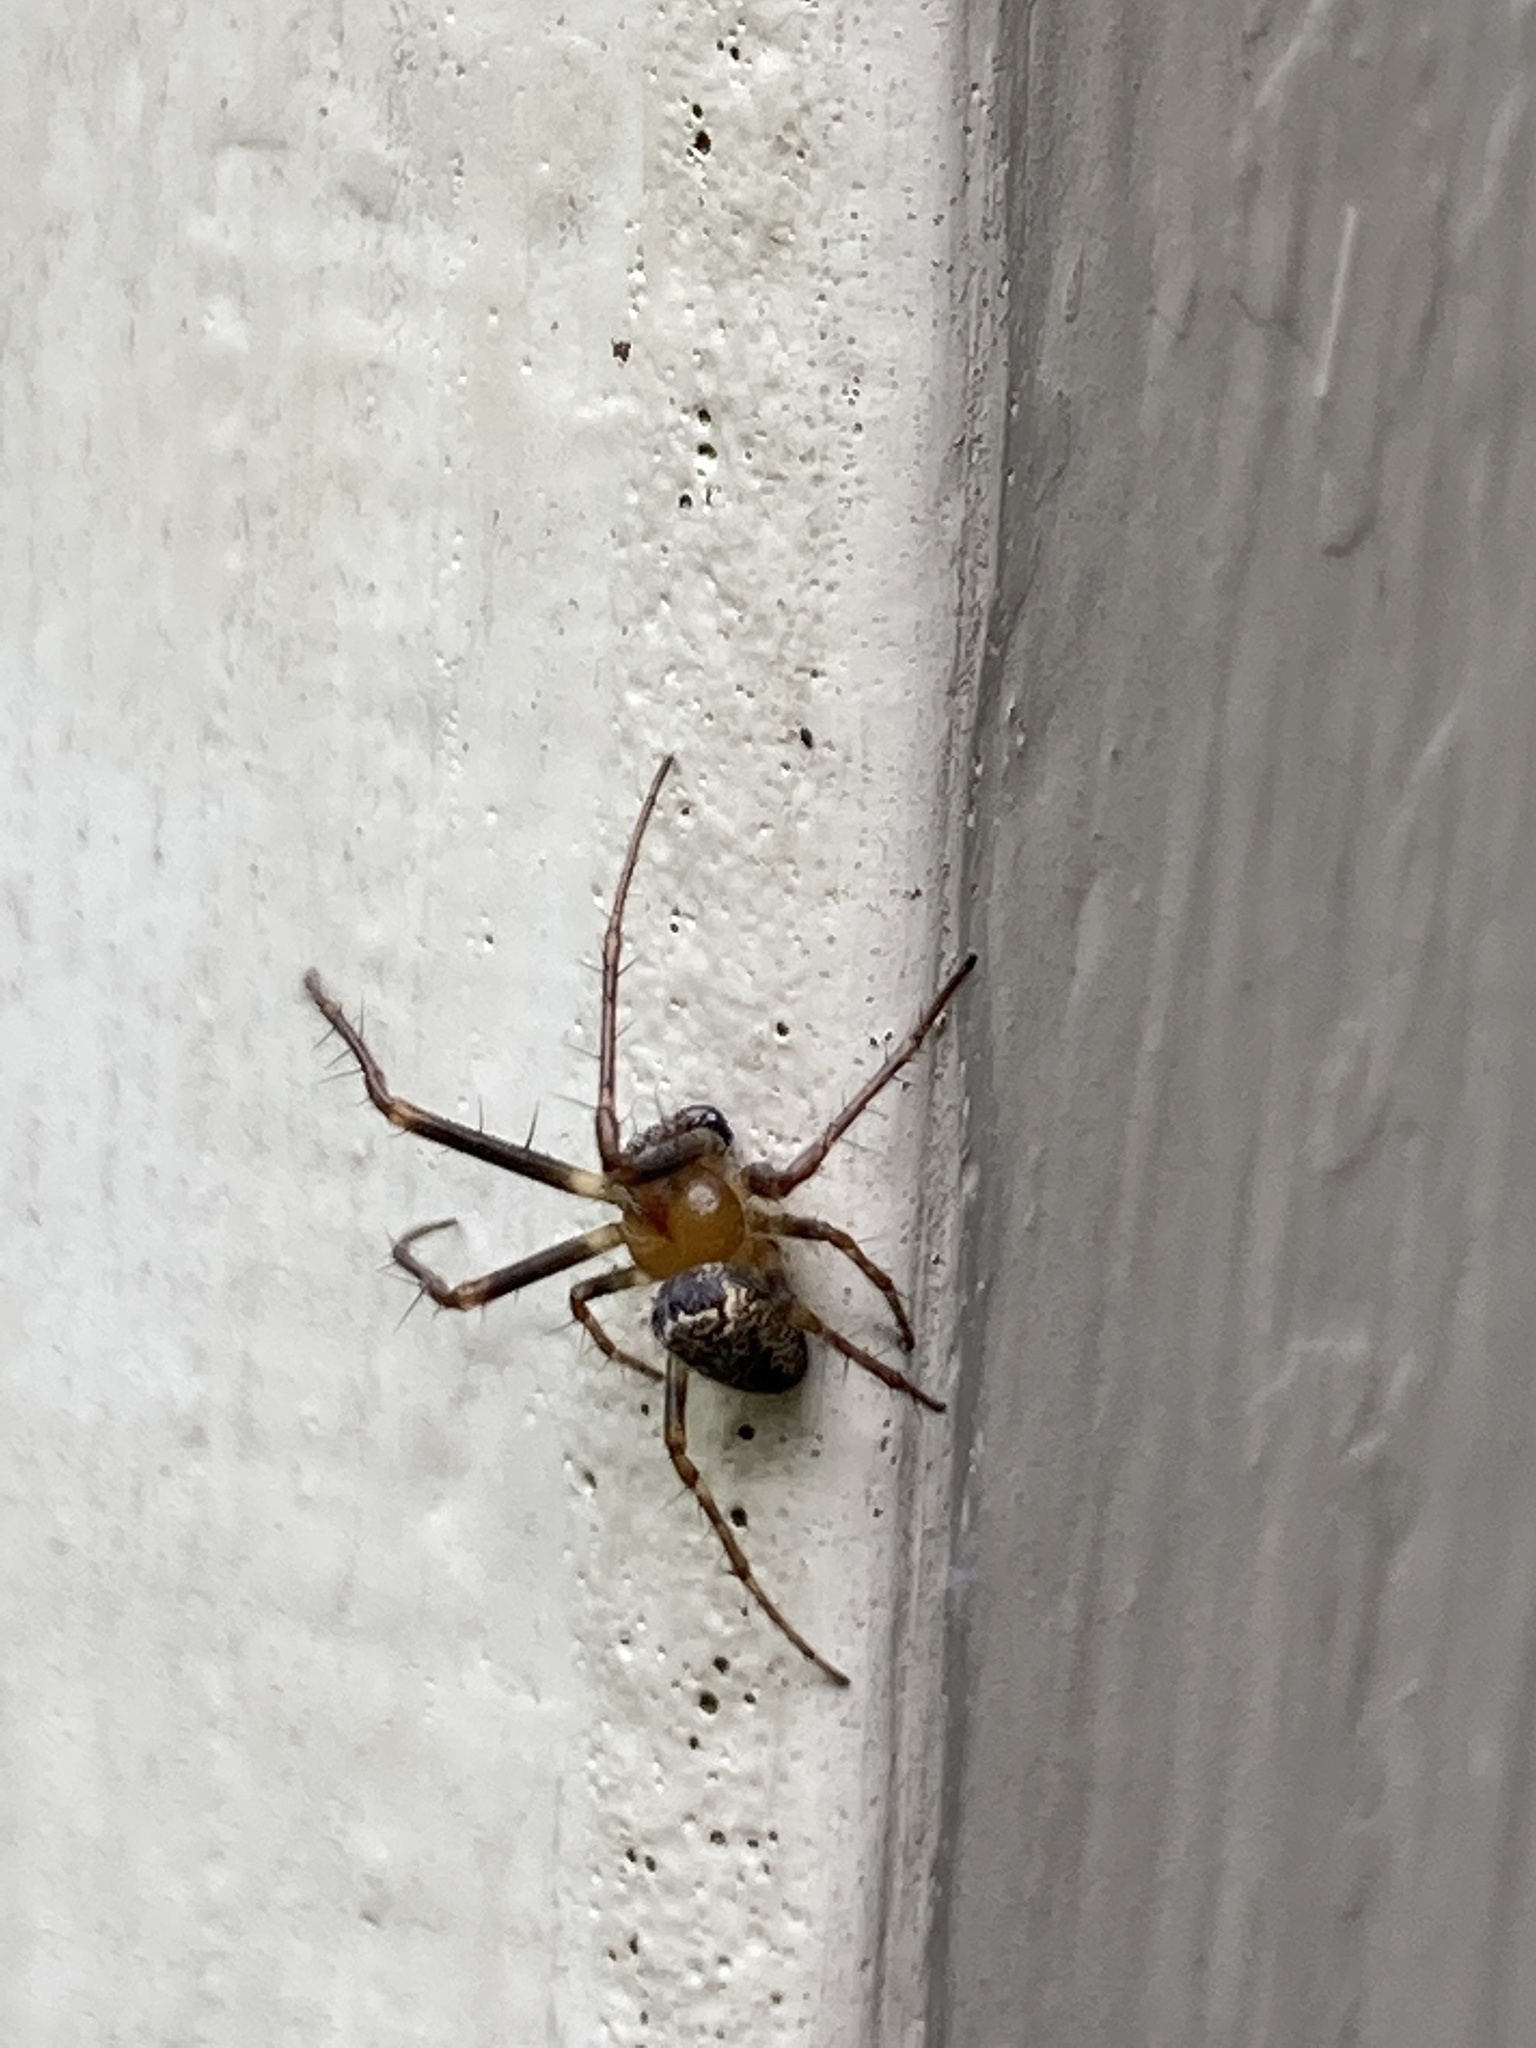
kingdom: Animalia
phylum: Arthropoda
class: Arachnida
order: Araneae
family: Araneidae
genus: Zilla
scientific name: Zilla diodia
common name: Zilla diodia
